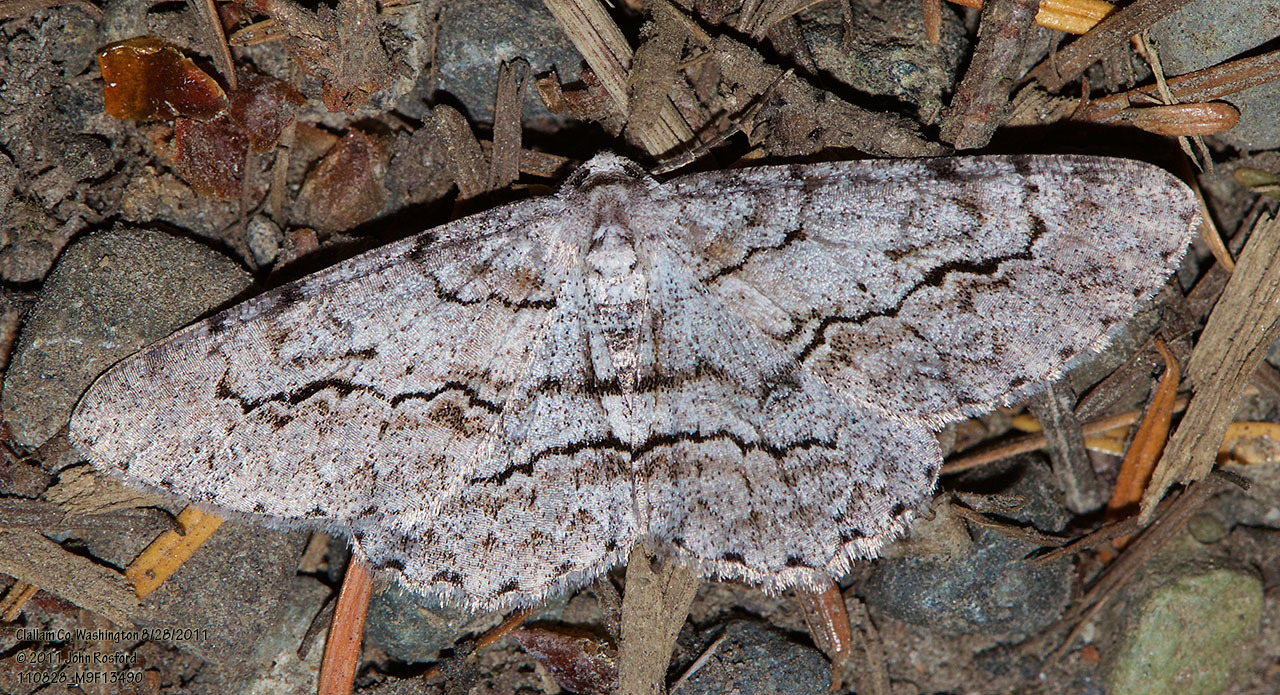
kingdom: Animalia
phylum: Arthropoda
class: Insecta
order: Lepidoptera
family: Geometridae
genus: Iridopsis
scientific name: Iridopsis emasculatum
